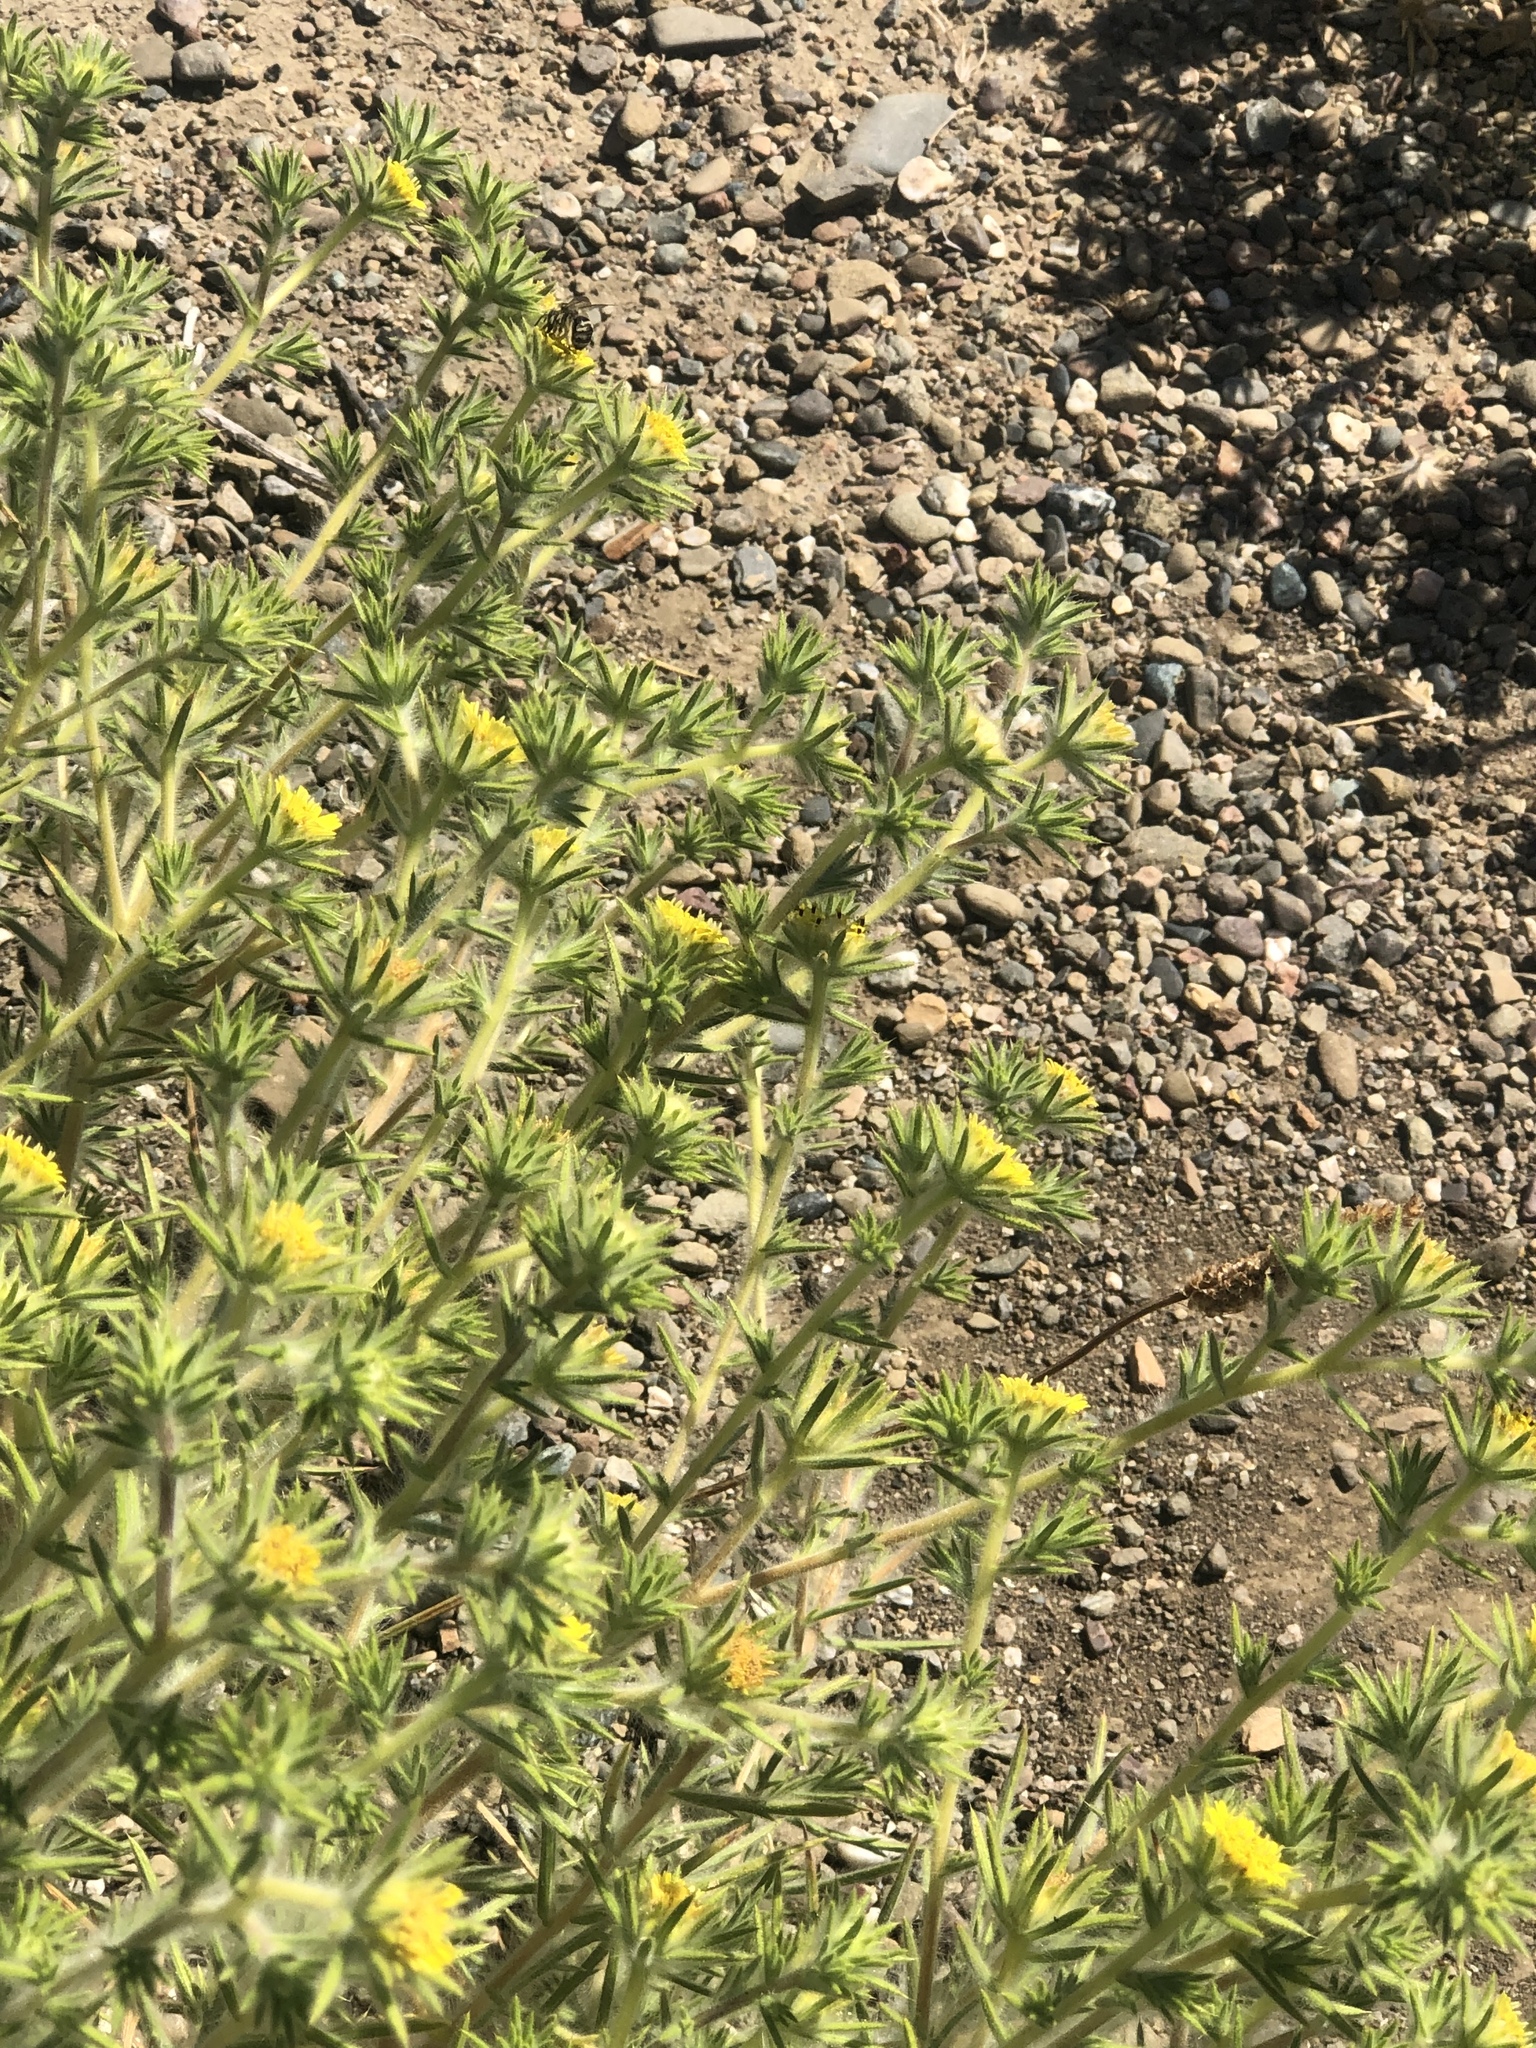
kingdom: Plantae
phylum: Tracheophyta
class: Magnoliopsida
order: Asterales
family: Asteraceae
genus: Centromadia
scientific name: Centromadia fitchii
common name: Fitch's spikeweed
